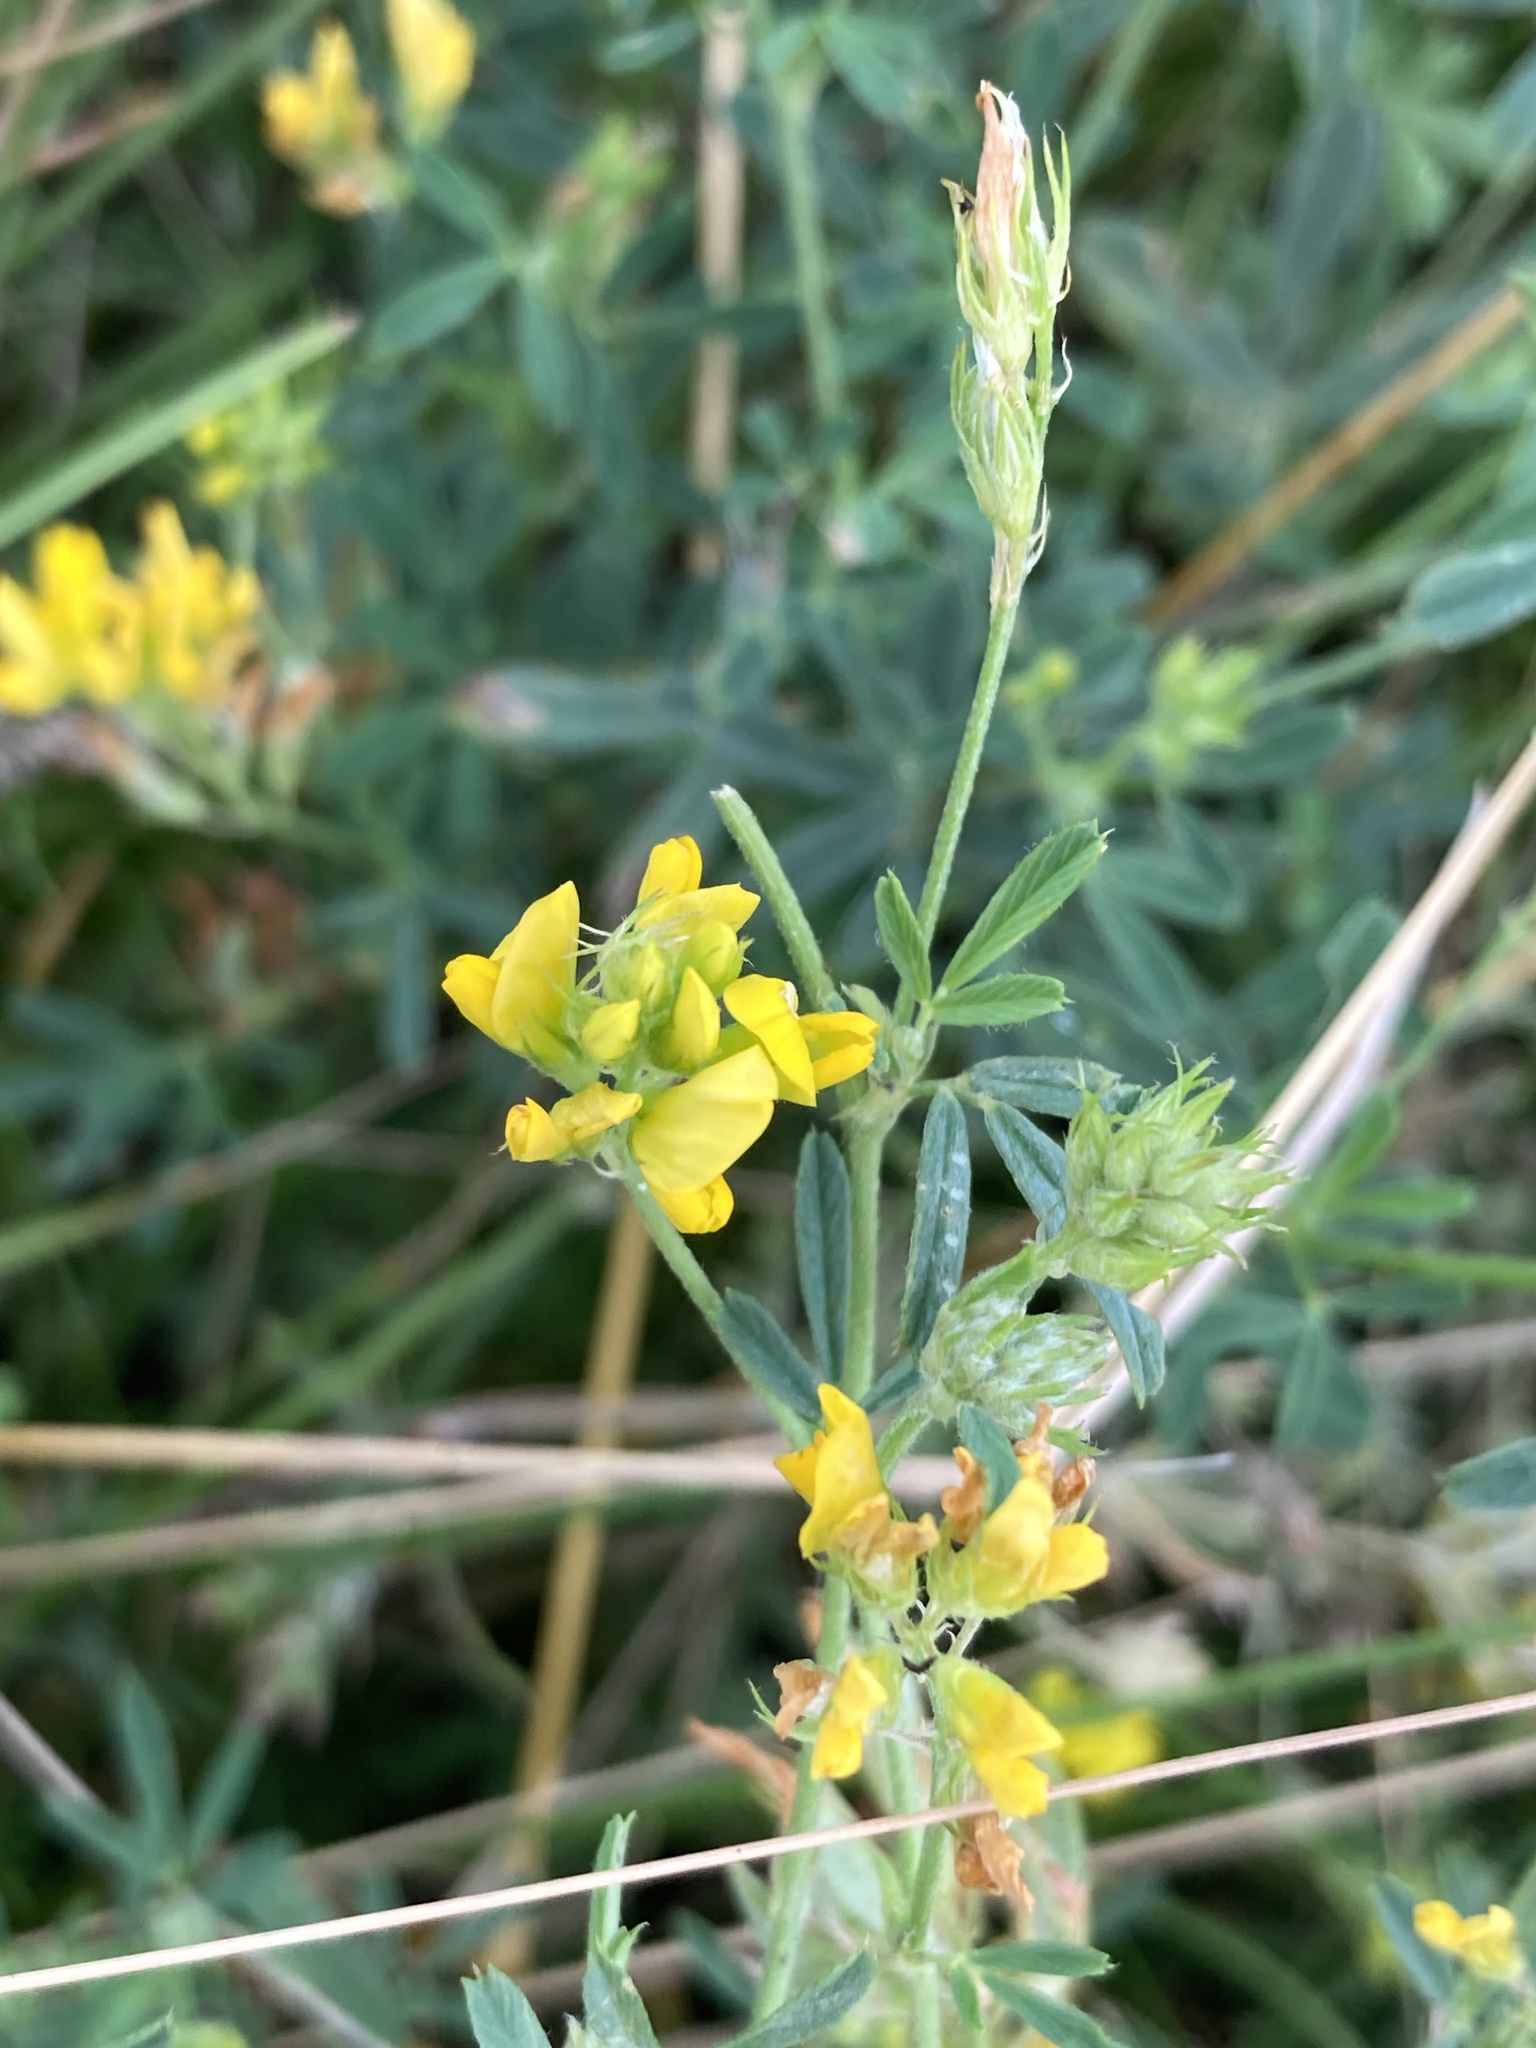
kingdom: Plantae
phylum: Tracheophyta
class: Magnoliopsida
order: Fabales
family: Fabaceae
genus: Medicago
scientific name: Medicago falcata
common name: Sickle medick
